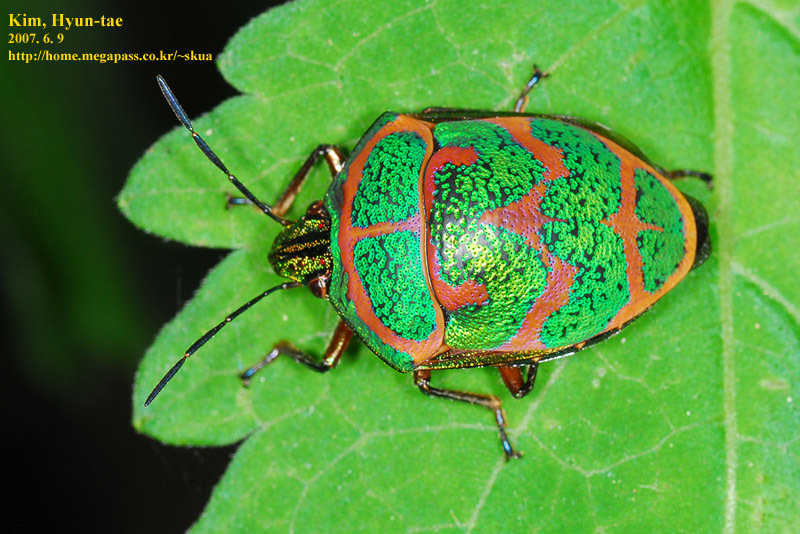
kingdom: Animalia
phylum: Arthropoda
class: Insecta
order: Hemiptera
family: Scutelleridae
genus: Poecilocoris
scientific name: Poecilocoris lewisi
